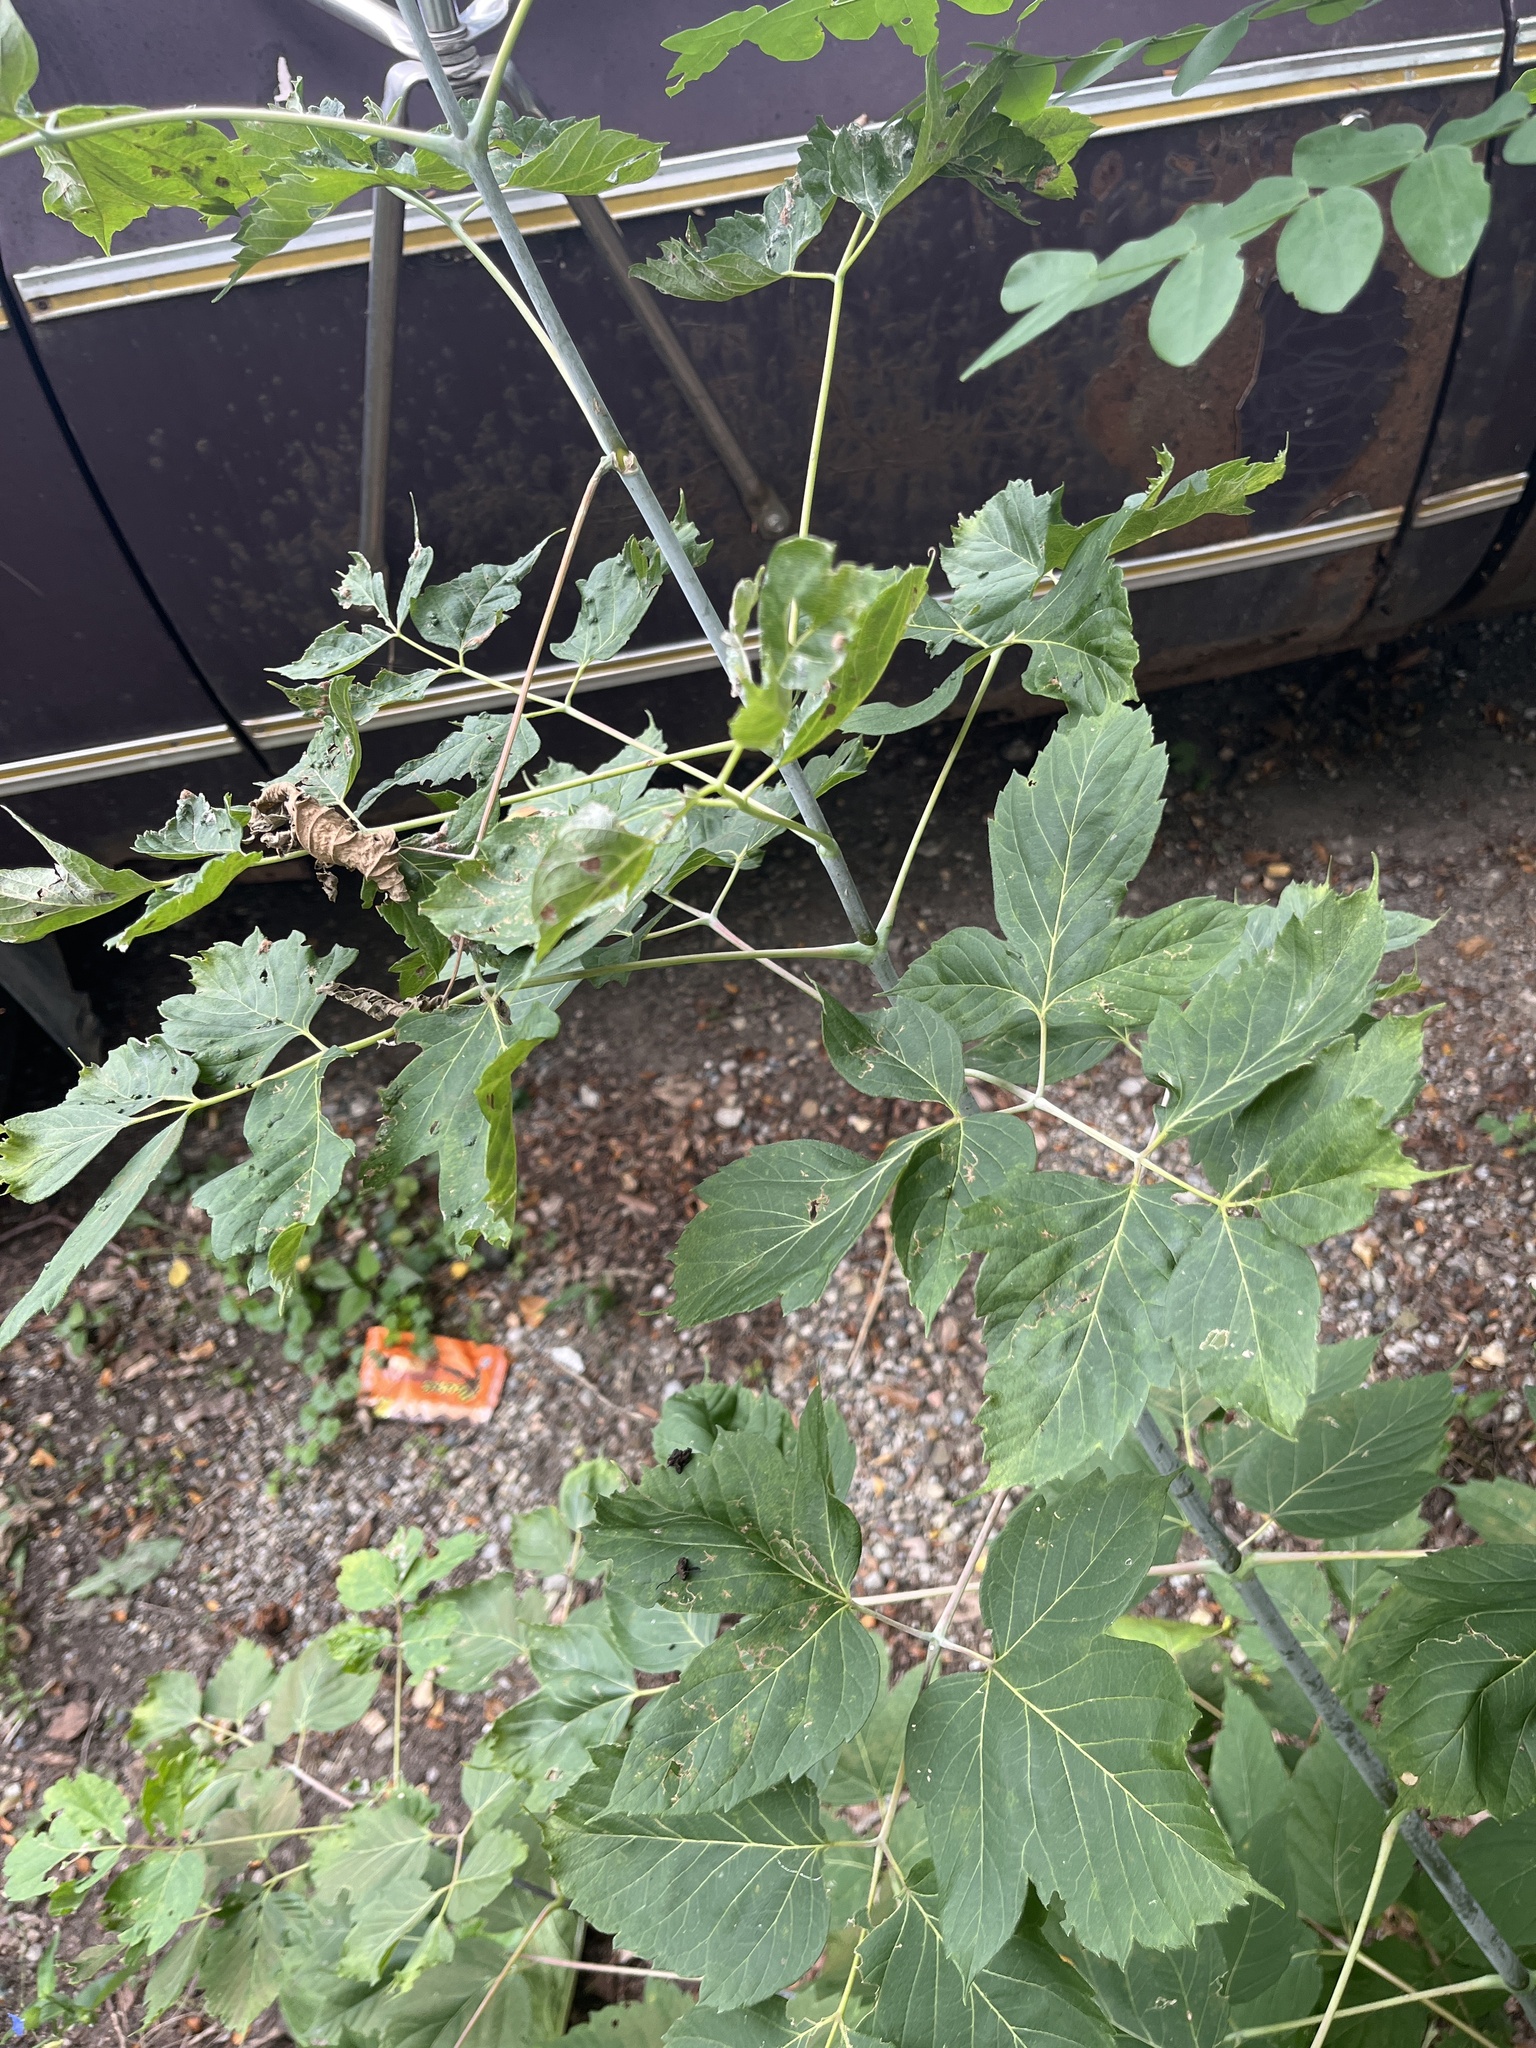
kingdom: Plantae
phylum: Tracheophyta
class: Magnoliopsida
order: Sapindales
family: Sapindaceae
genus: Acer
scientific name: Acer negundo
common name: Ashleaf maple
